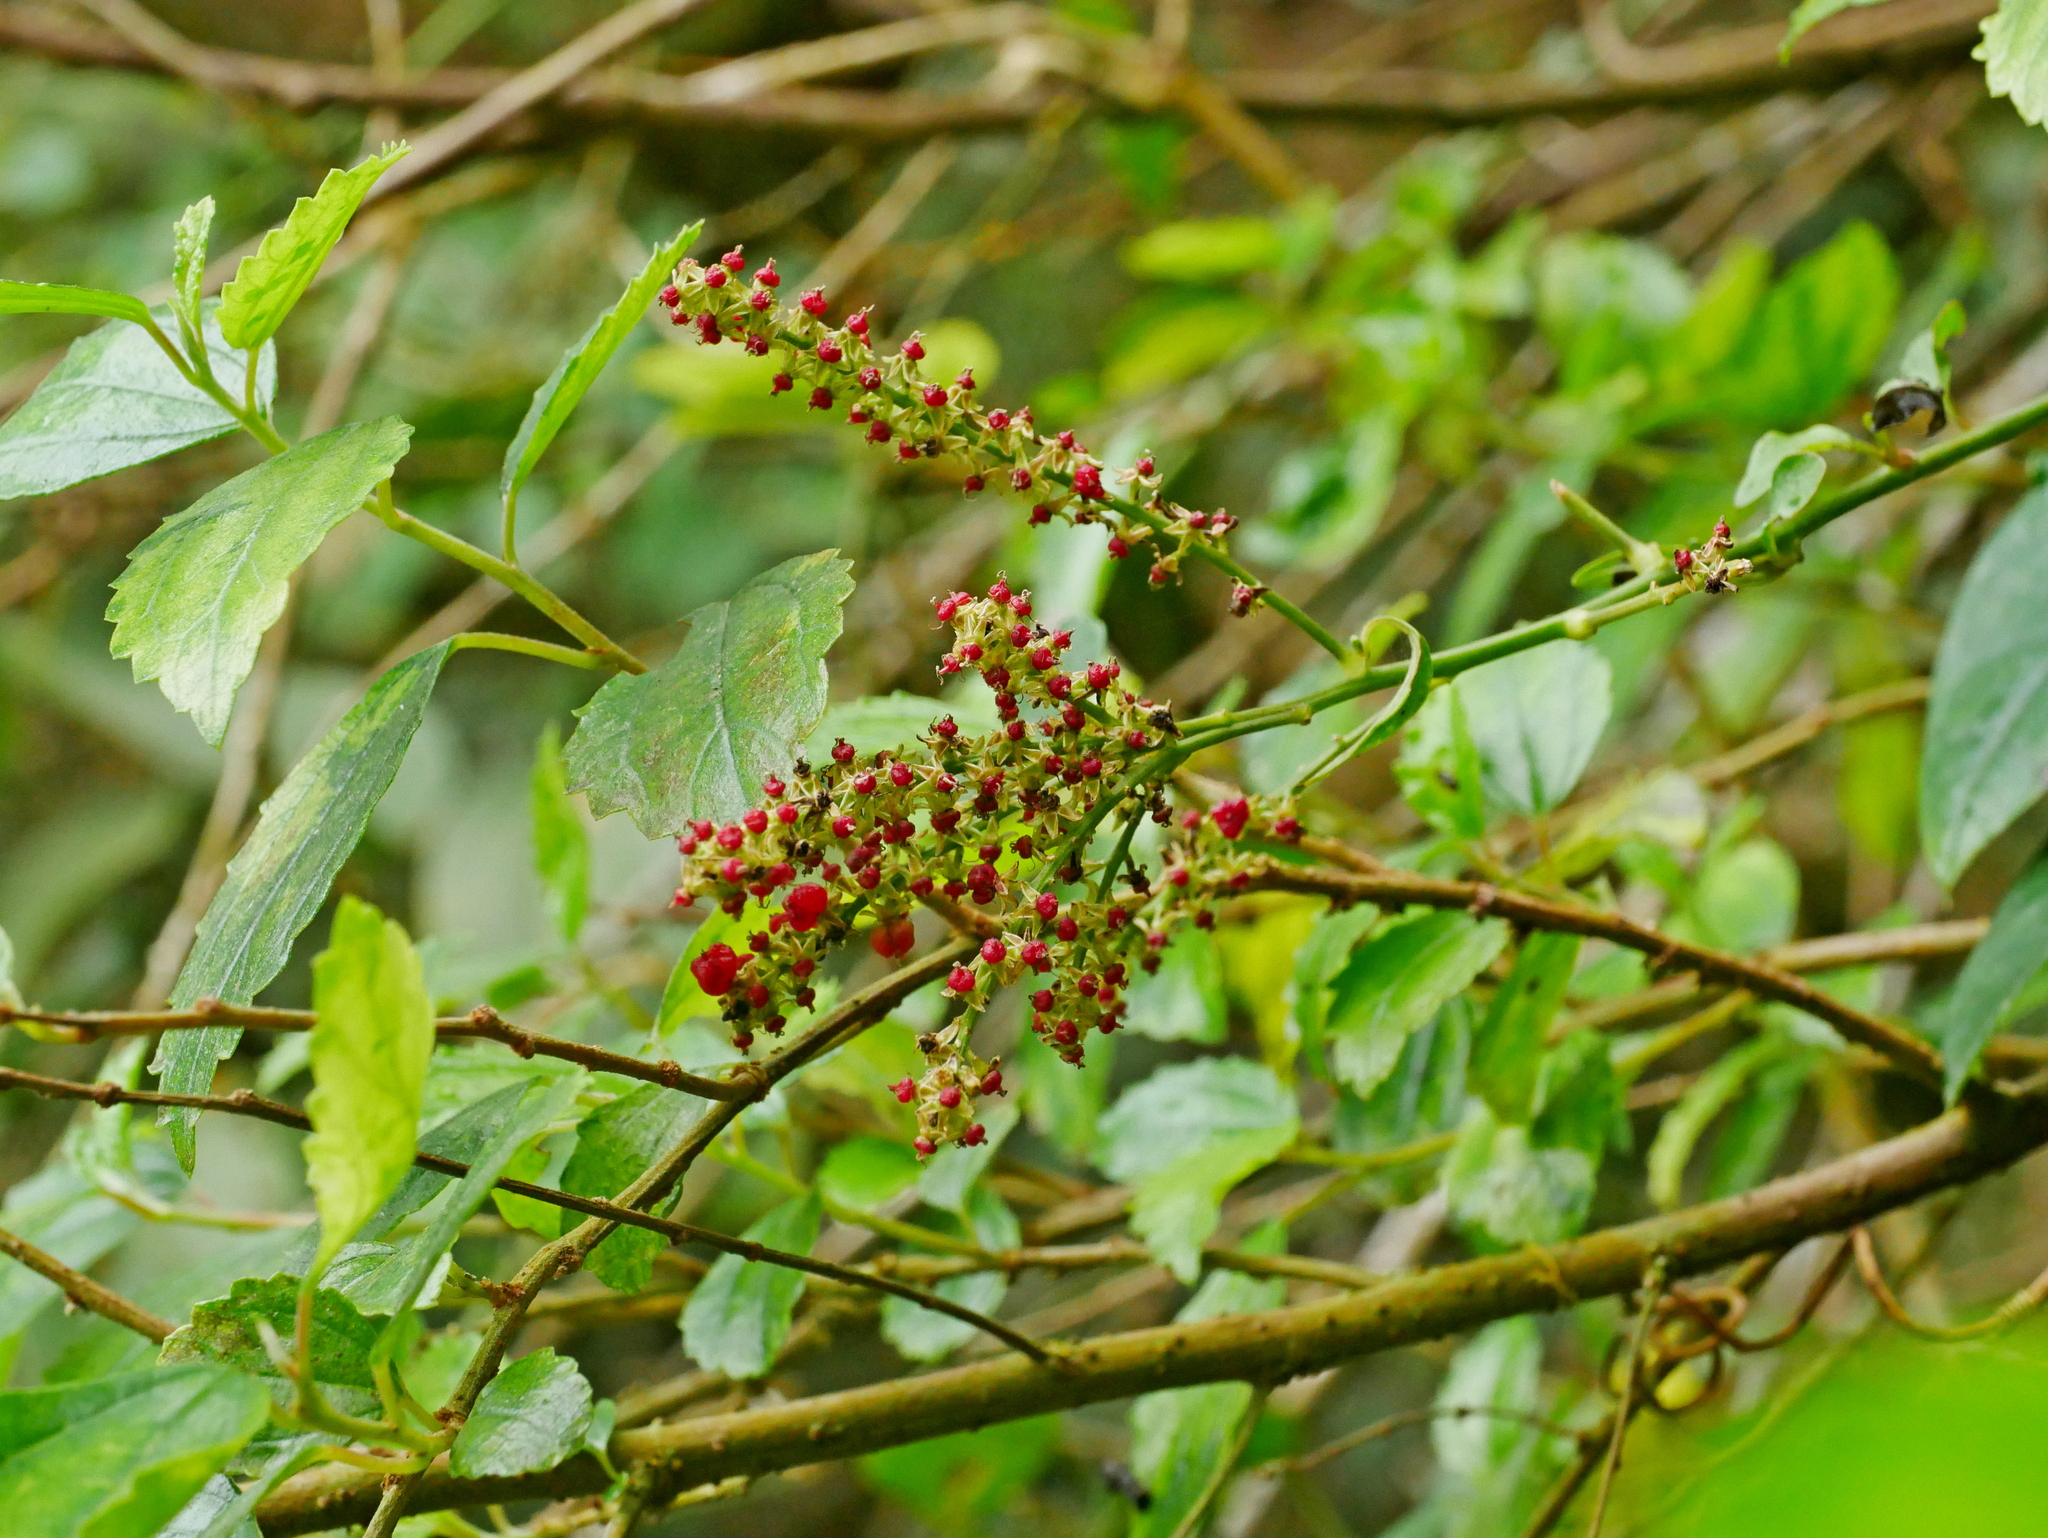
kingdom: Plantae
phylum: Tracheophyta
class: Magnoliopsida
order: Caryophyllales
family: Amaranthaceae
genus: Deeringia
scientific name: Deeringia amaranthoides
